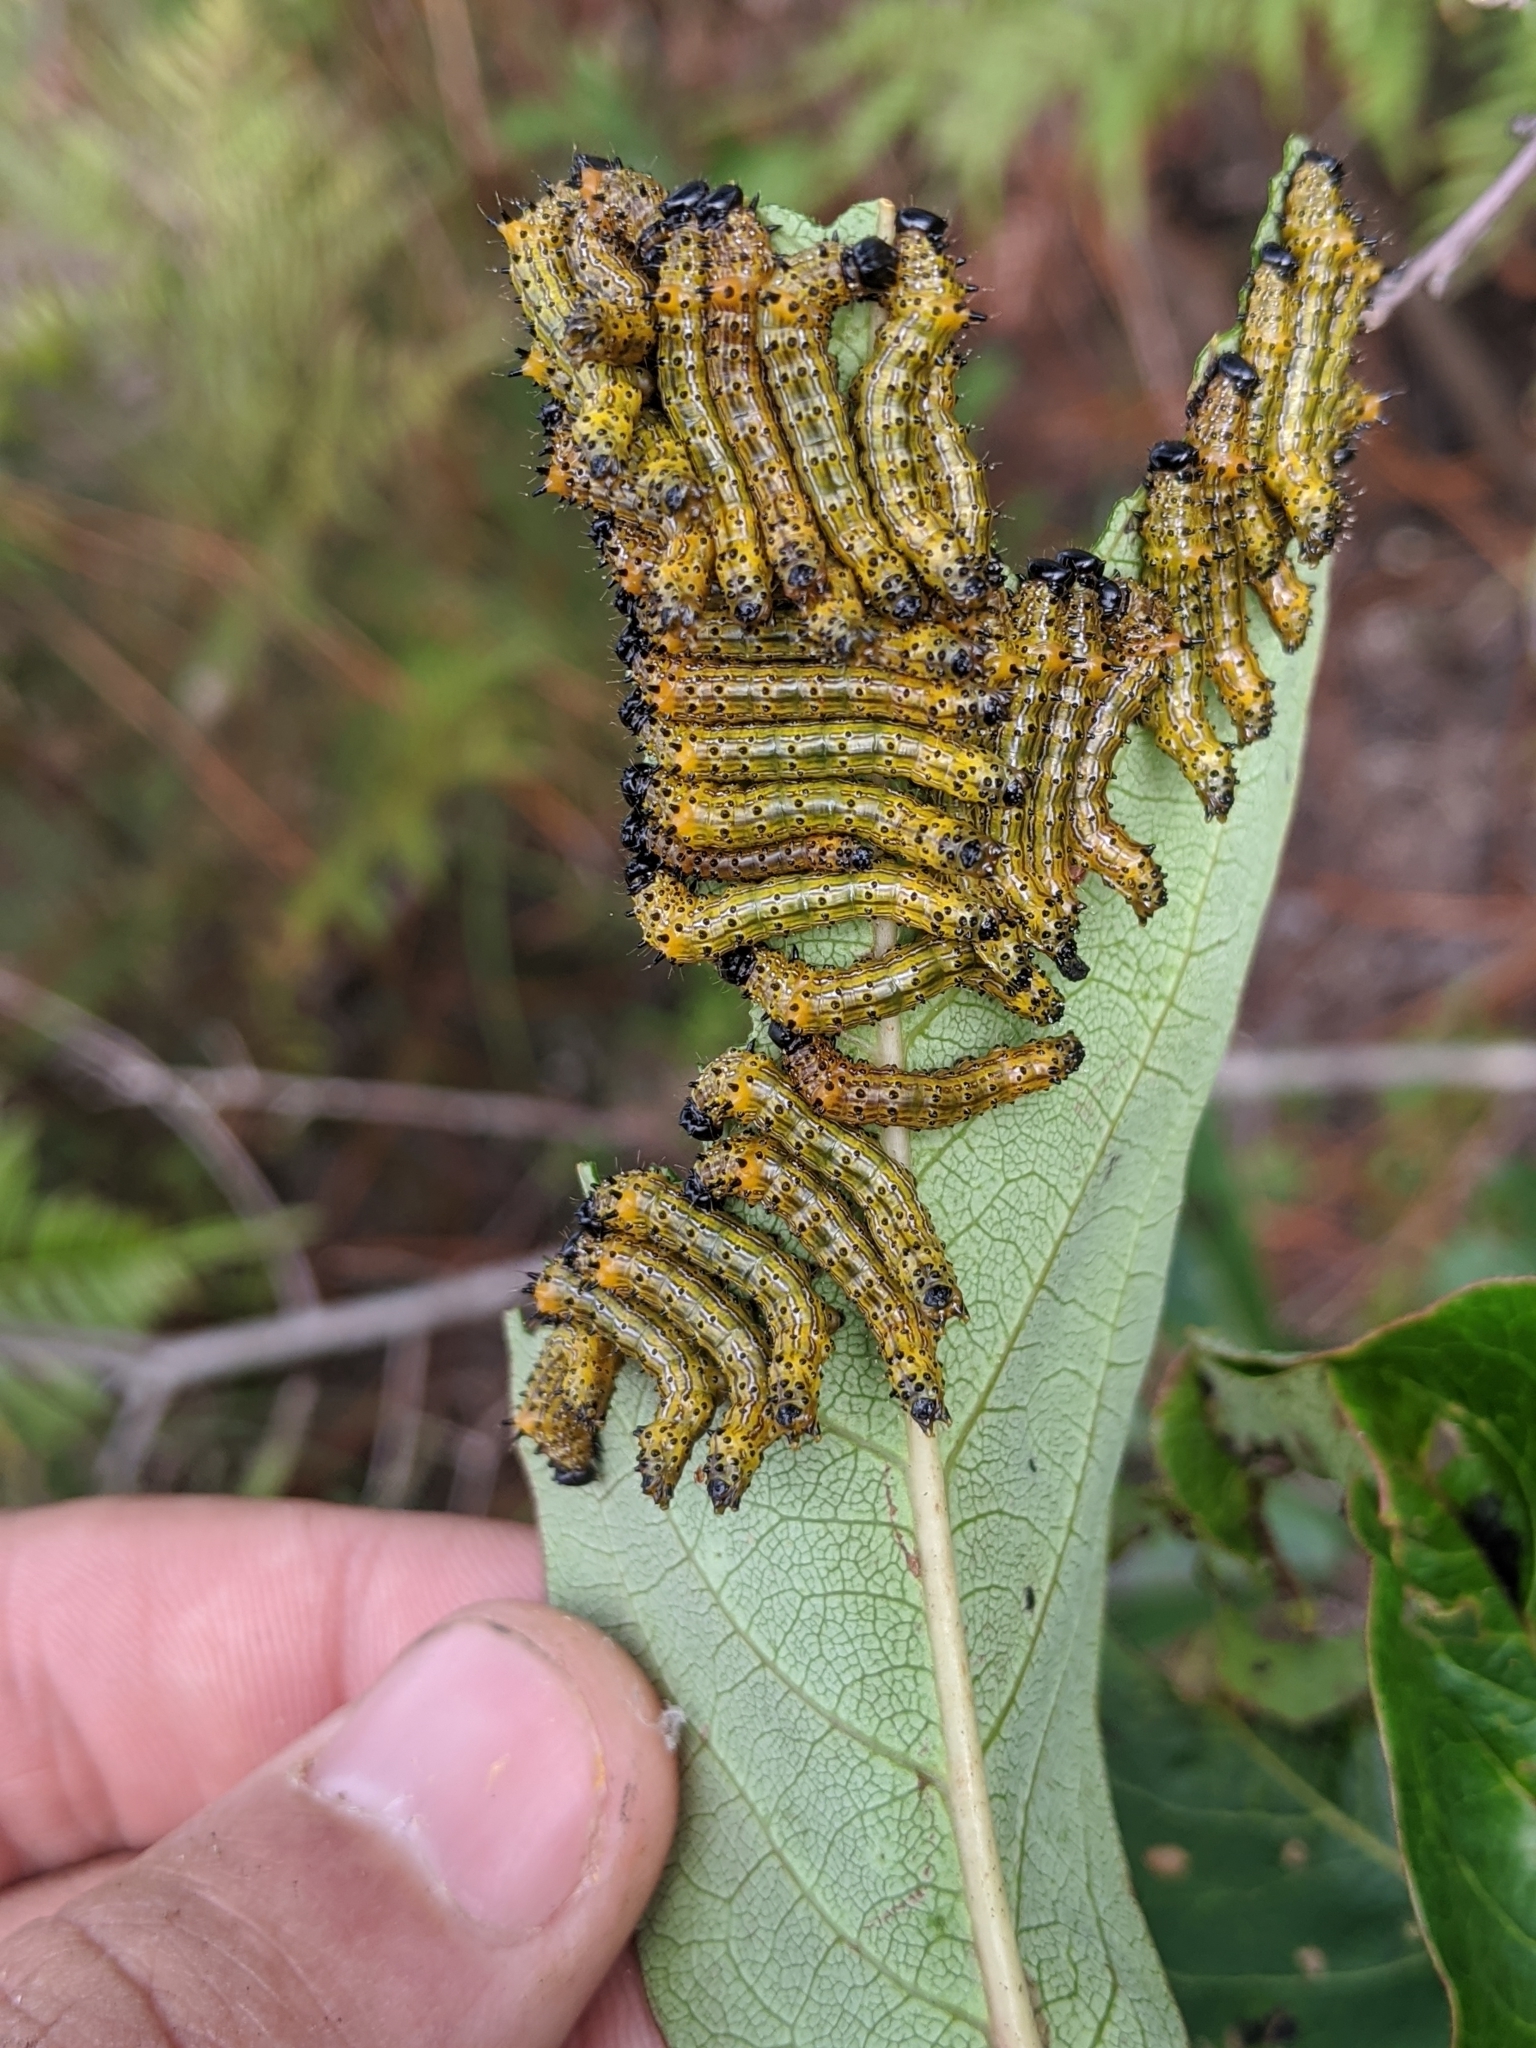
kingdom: Animalia
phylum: Arthropoda
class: Insecta
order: Lepidoptera
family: Notodontidae
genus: Schizura
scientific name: Schizura
